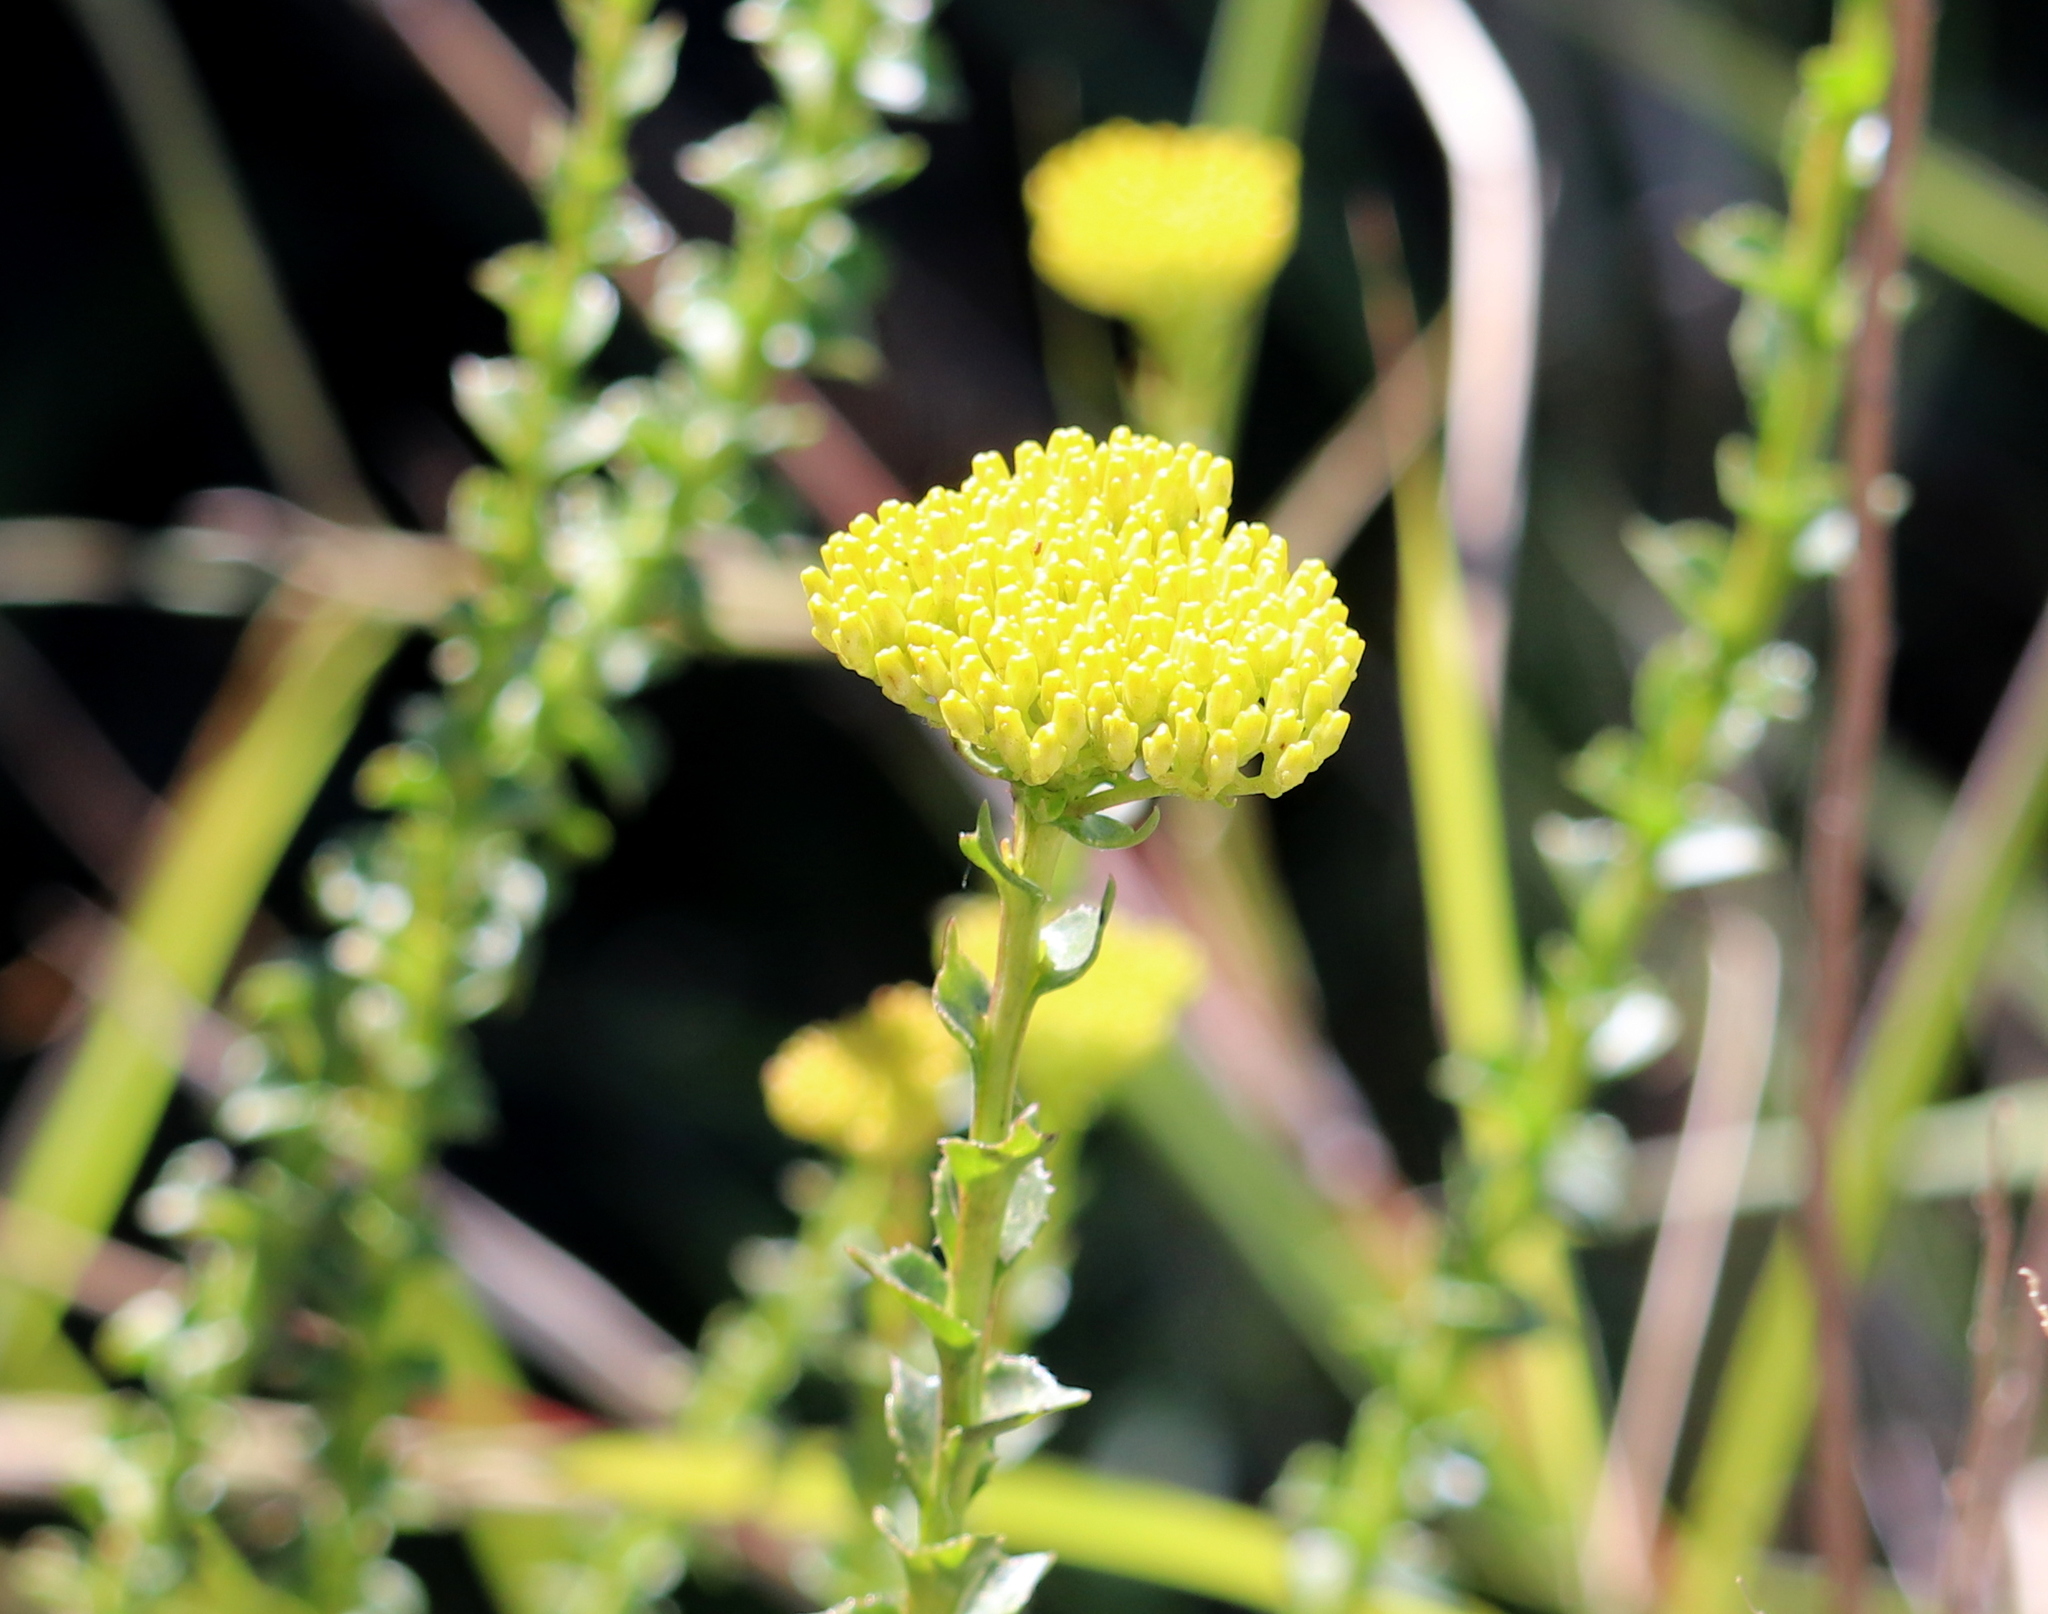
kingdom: Plantae
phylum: Tracheophyta
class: Magnoliopsida
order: Asterales
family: Asteraceae
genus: Athanasia
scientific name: Athanasia dentata
